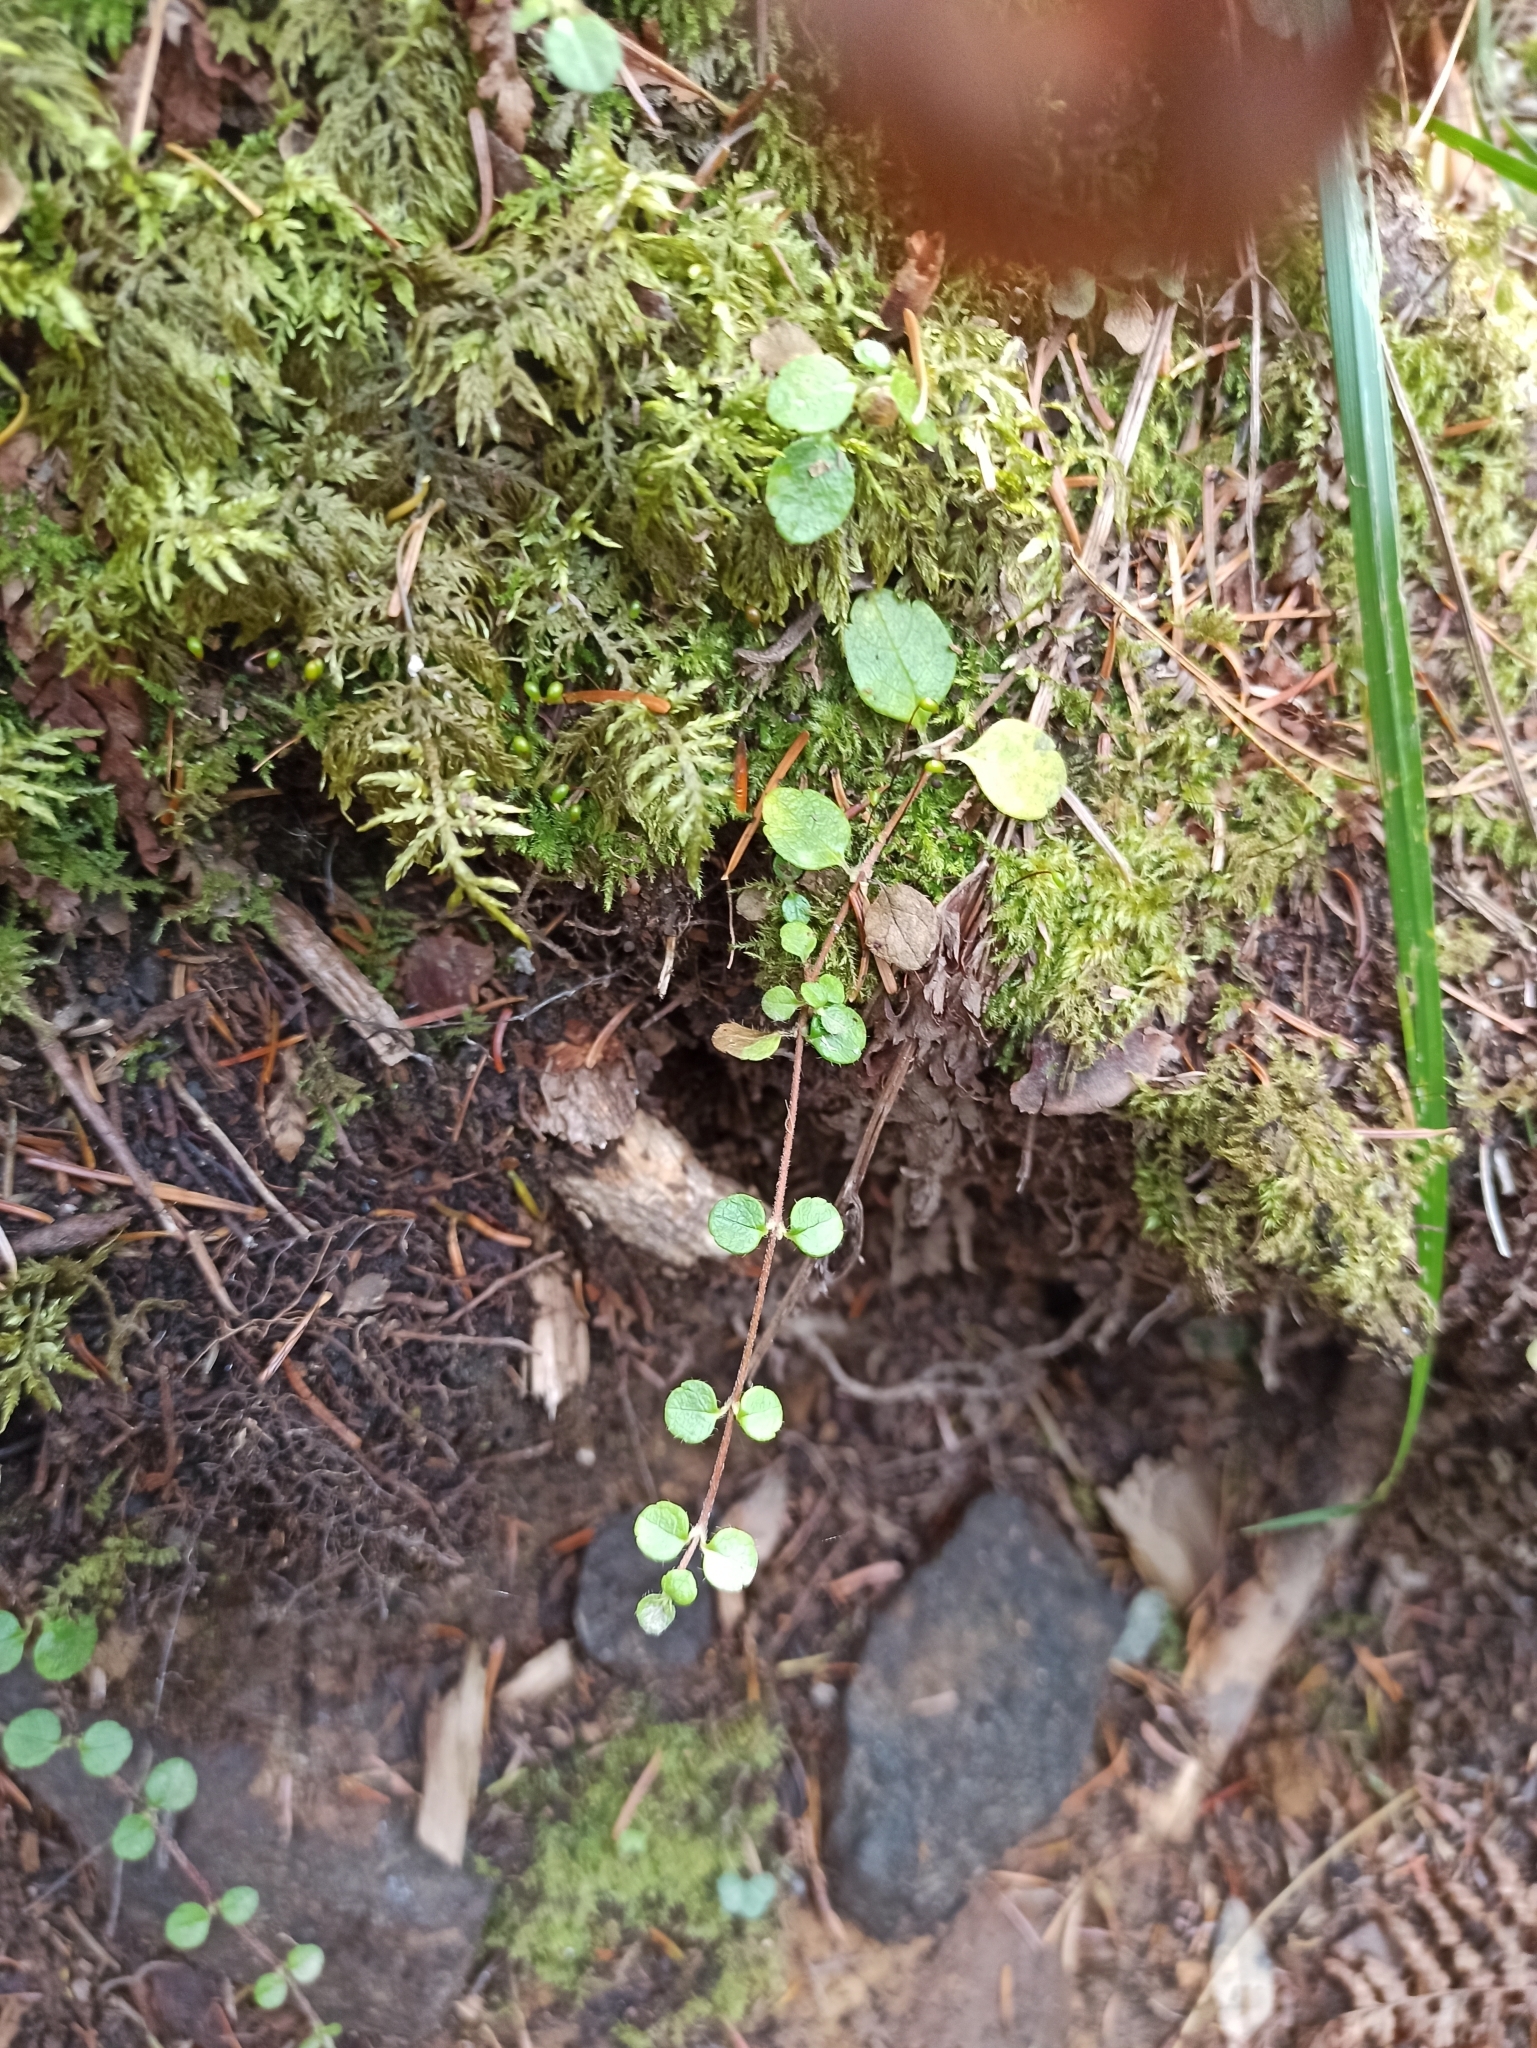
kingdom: Plantae
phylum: Tracheophyta
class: Magnoliopsida
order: Dipsacales
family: Caprifoliaceae
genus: Linnaea
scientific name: Linnaea borealis
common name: Twinflower
